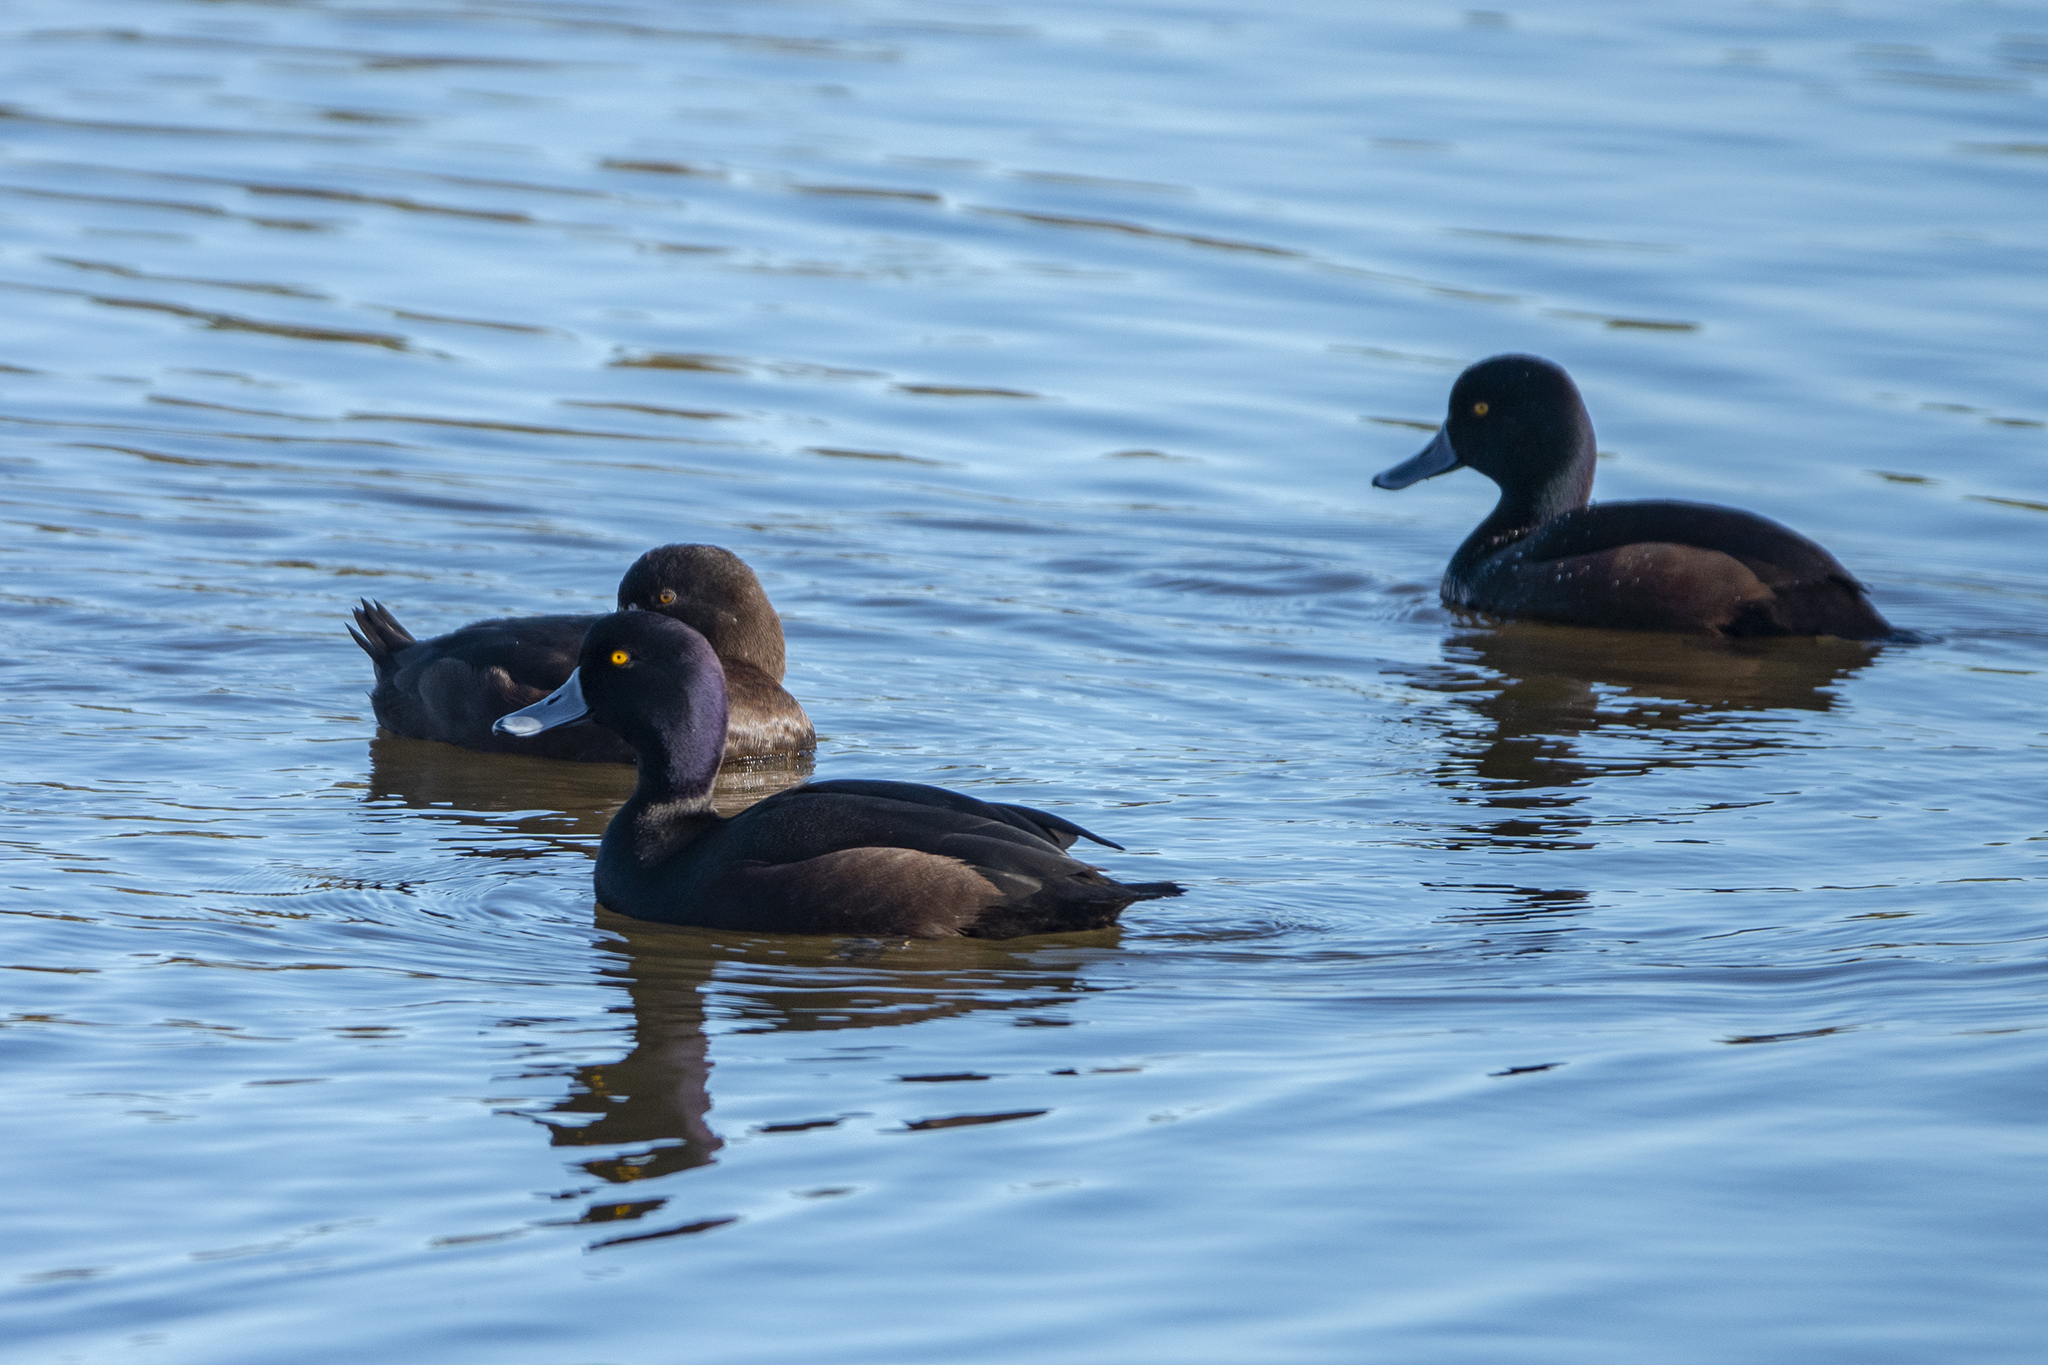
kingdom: Animalia
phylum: Chordata
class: Aves
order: Anseriformes
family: Anatidae
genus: Aythya
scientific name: Aythya novaeseelandiae
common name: New zealand scaup
